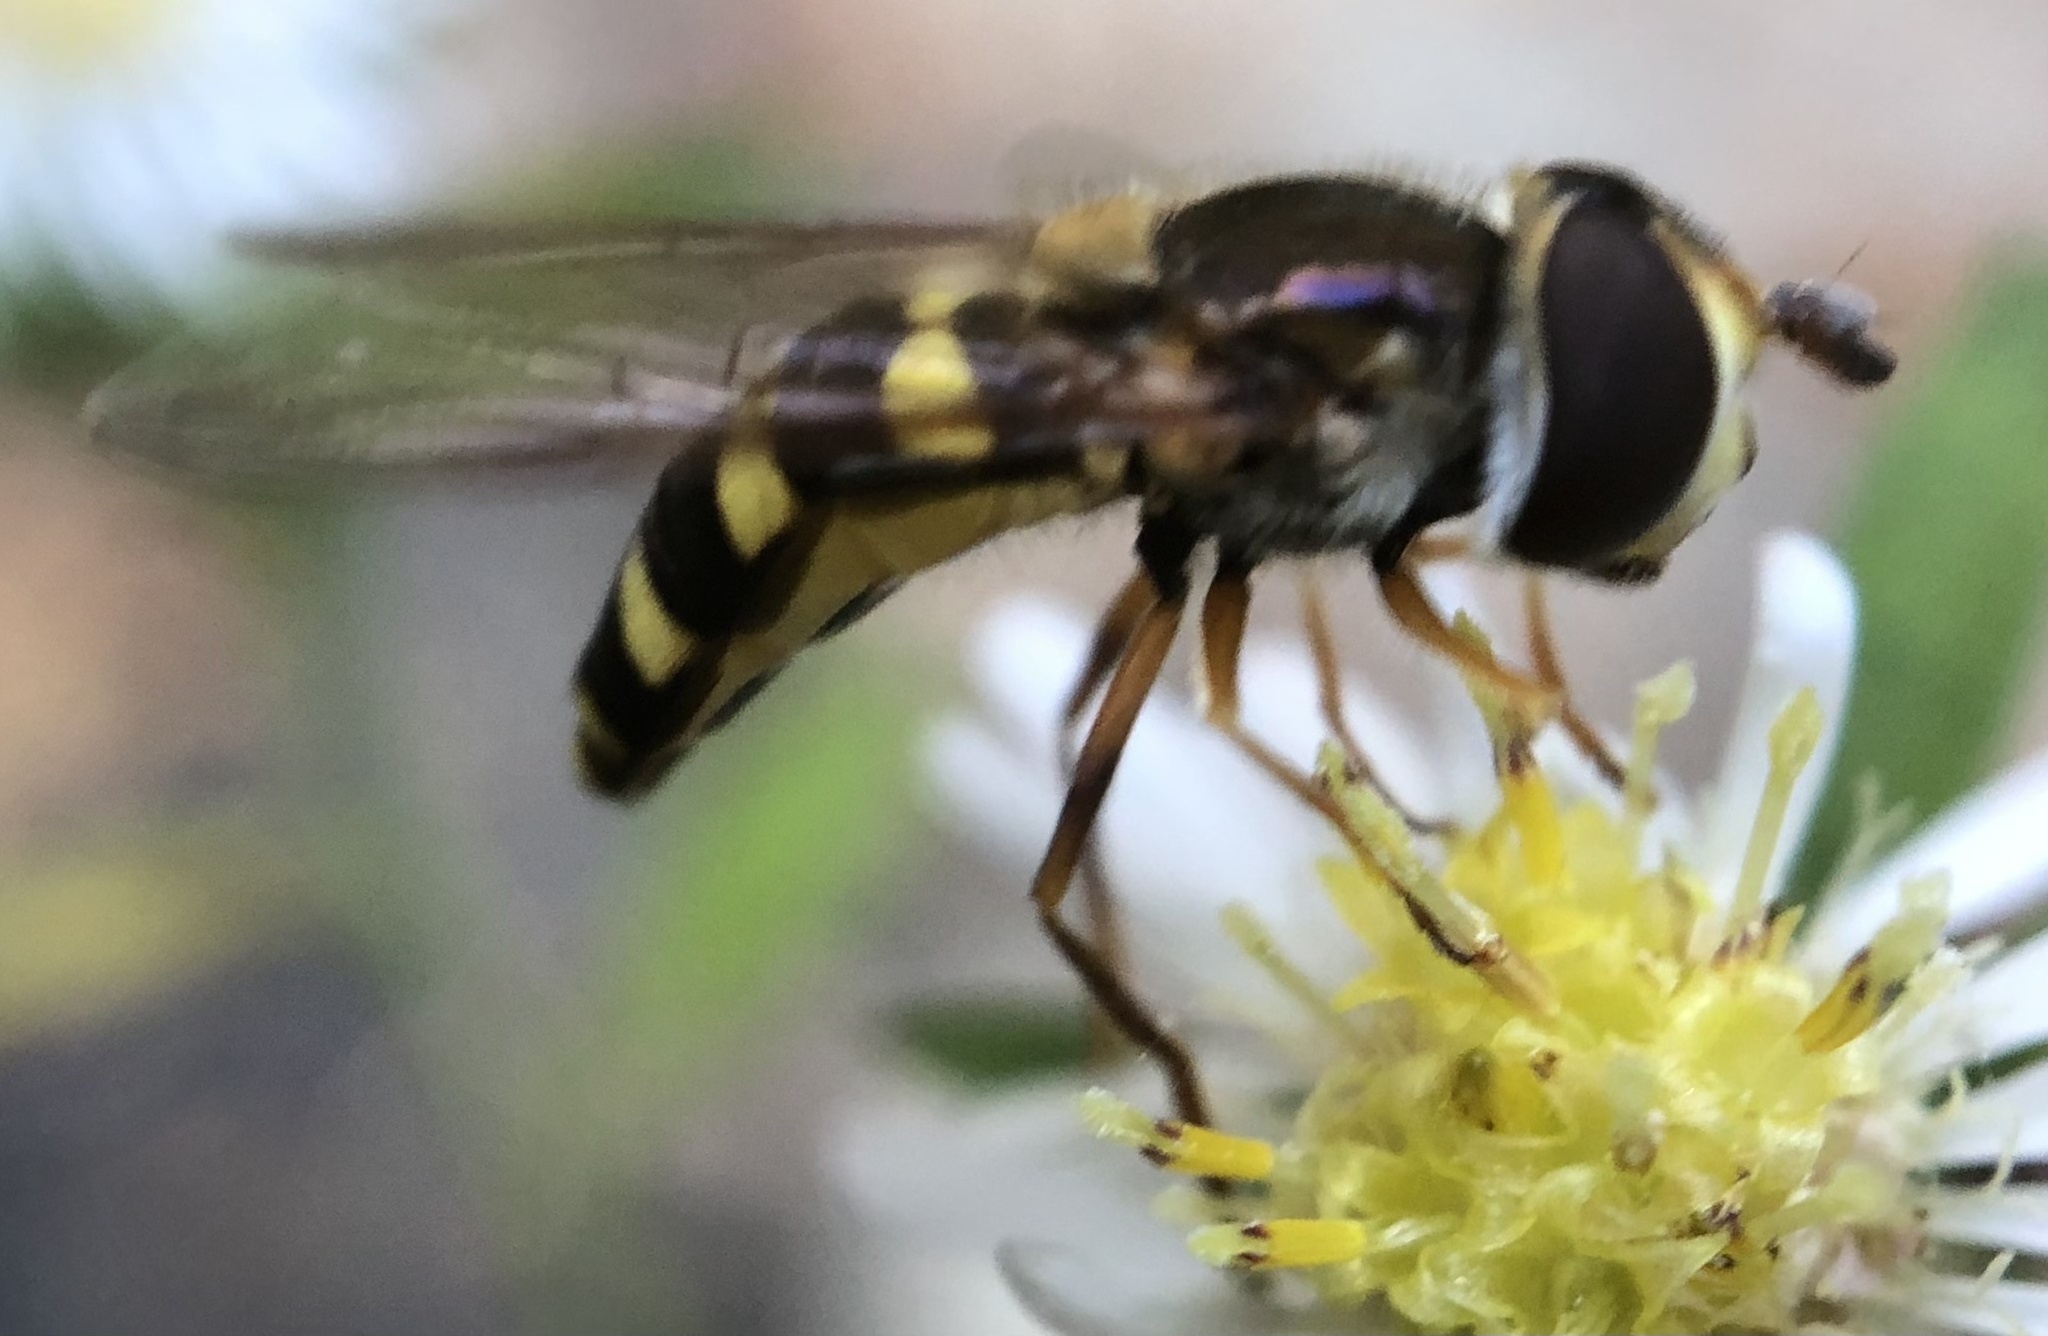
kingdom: Animalia
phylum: Arthropoda
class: Insecta
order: Diptera
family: Syrphidae
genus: Eupeodes
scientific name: Eupeodes
